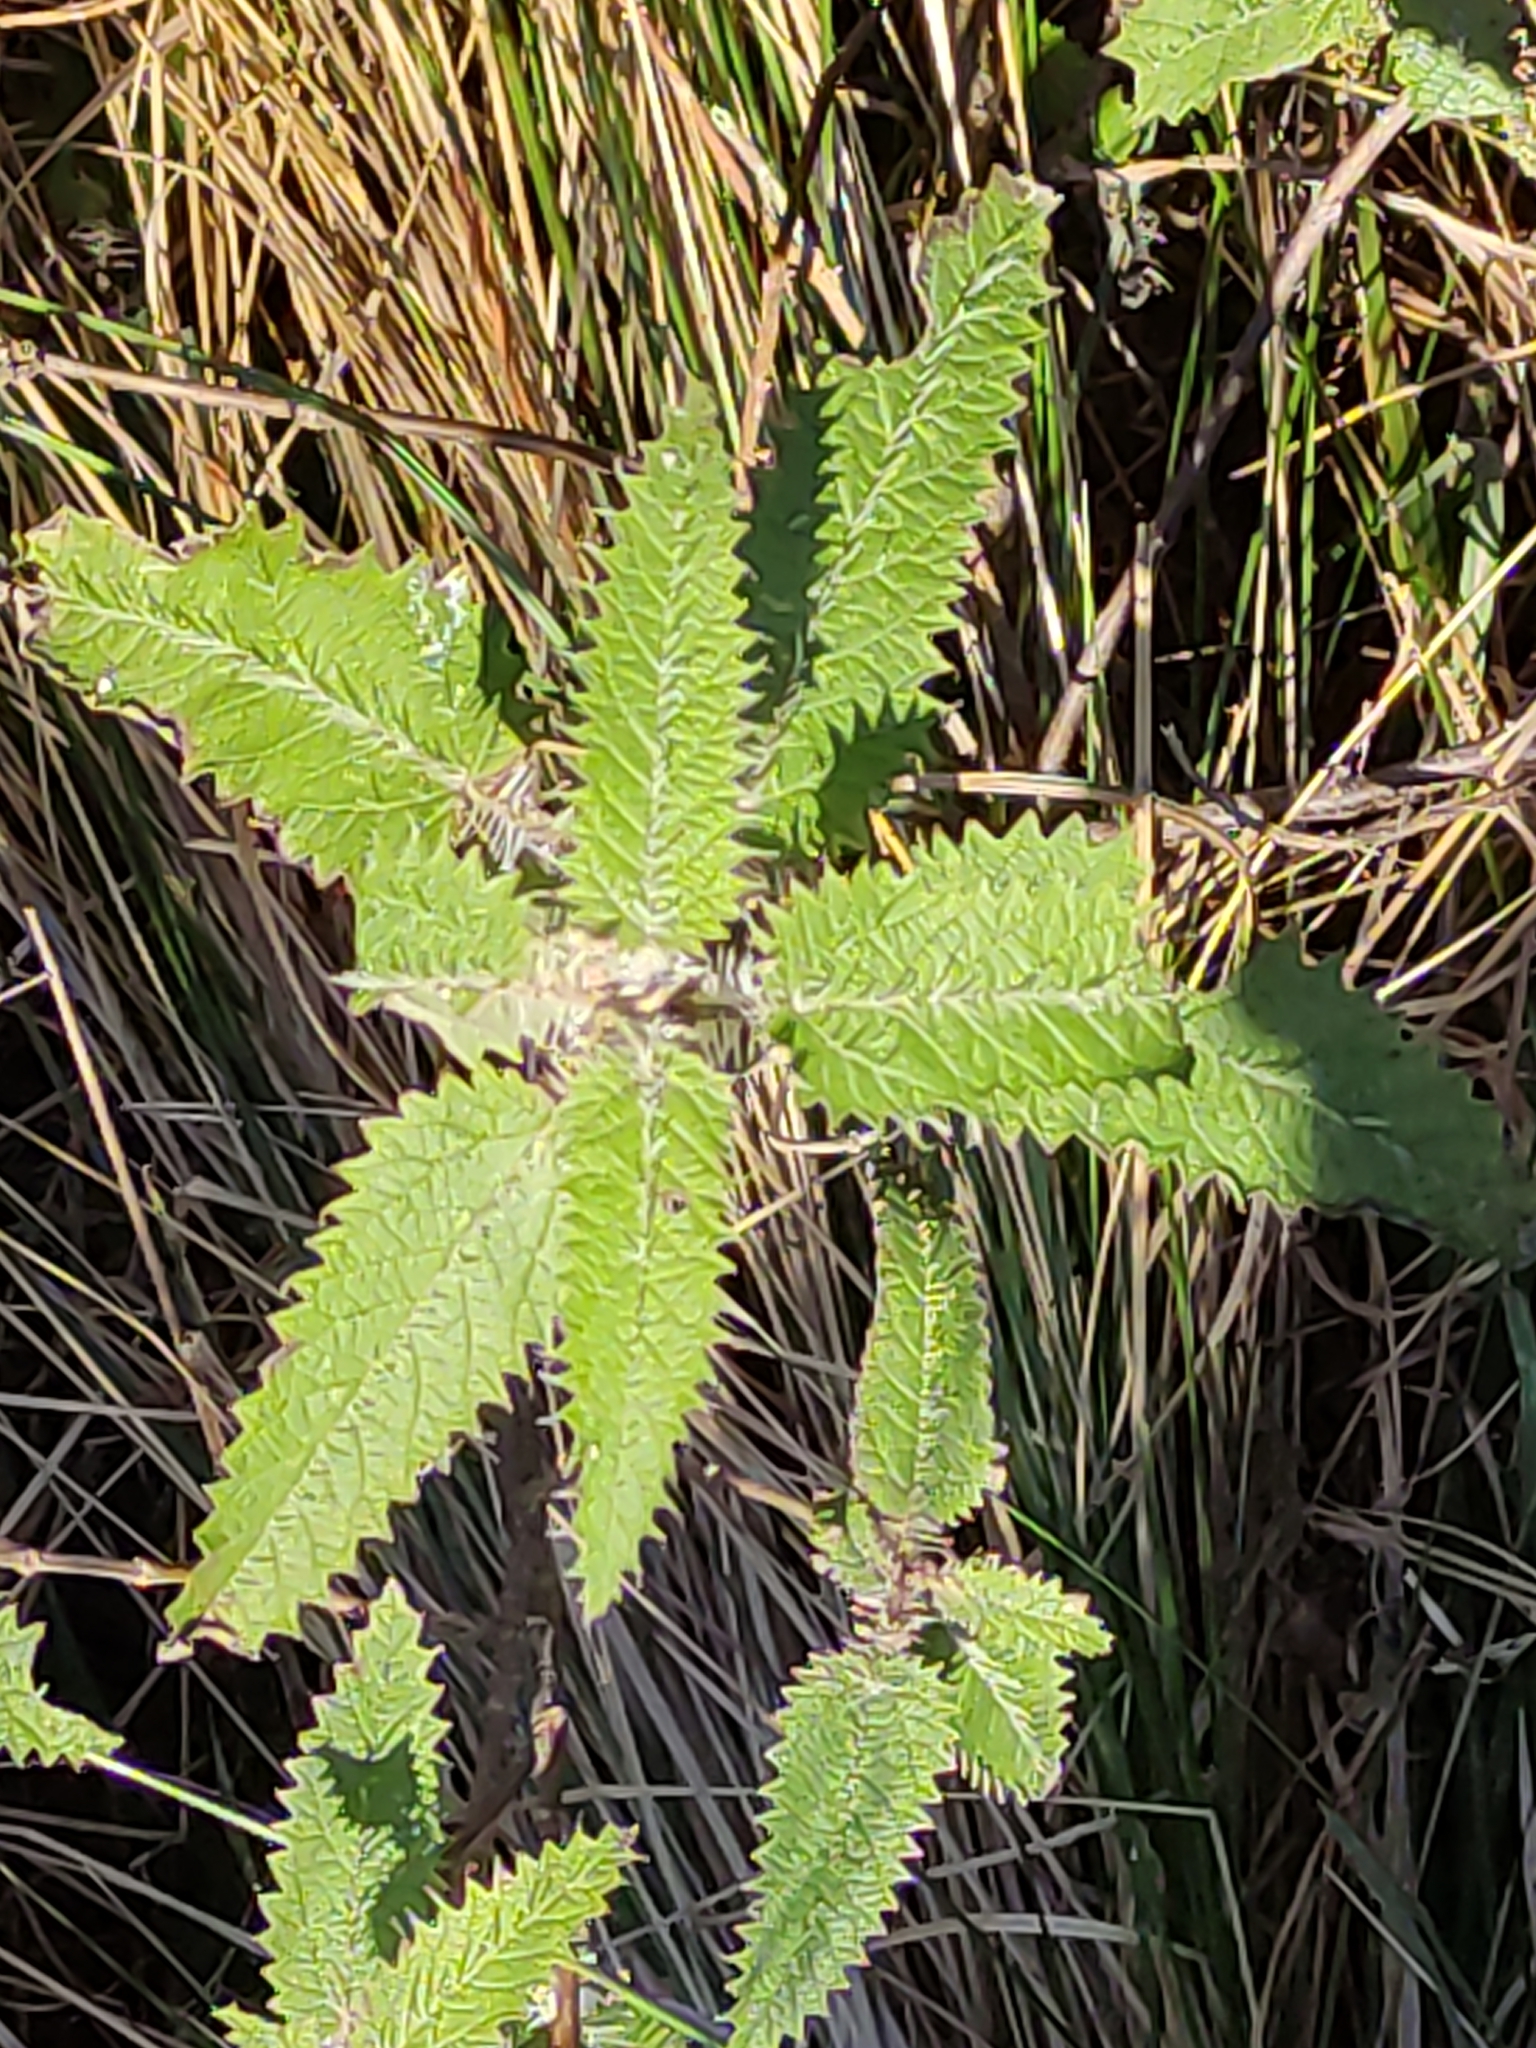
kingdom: Plantae
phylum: Tracheophyta
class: Magnoliopsida
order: Rosales
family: Urticaceae
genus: Urtica
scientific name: Urtica ferox
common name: Tree nettle
